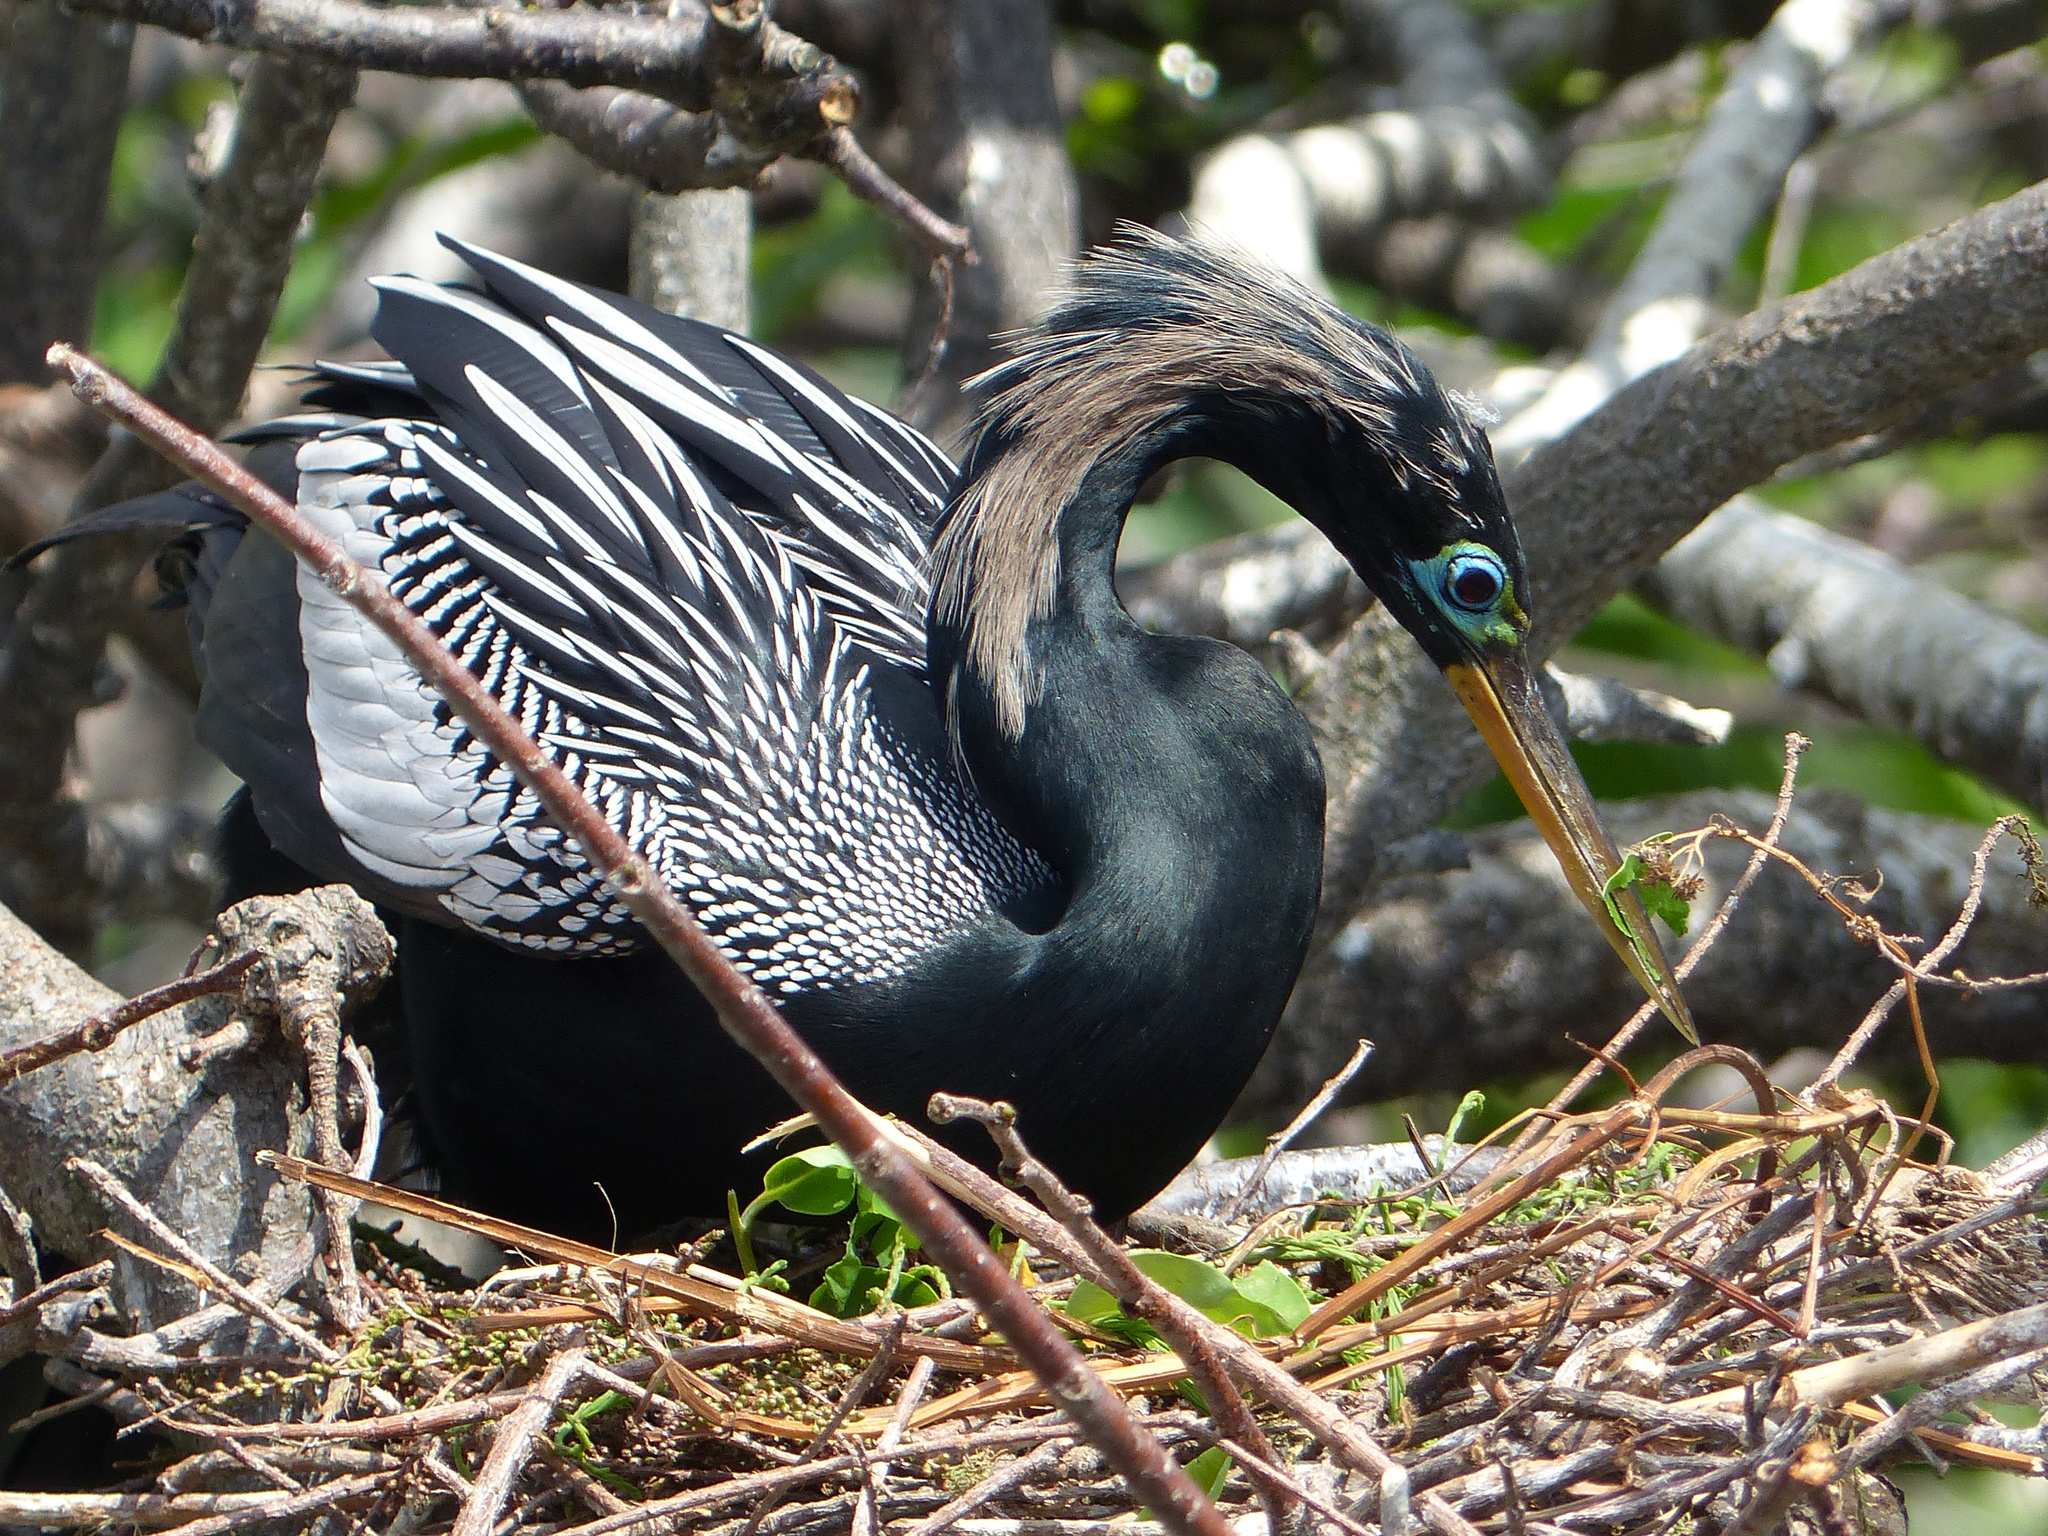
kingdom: Animalia
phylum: Chordata
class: Aves
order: Suliformes
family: Anhingidae
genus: Anhinga
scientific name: Anhinga anhinga
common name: Anhinga
